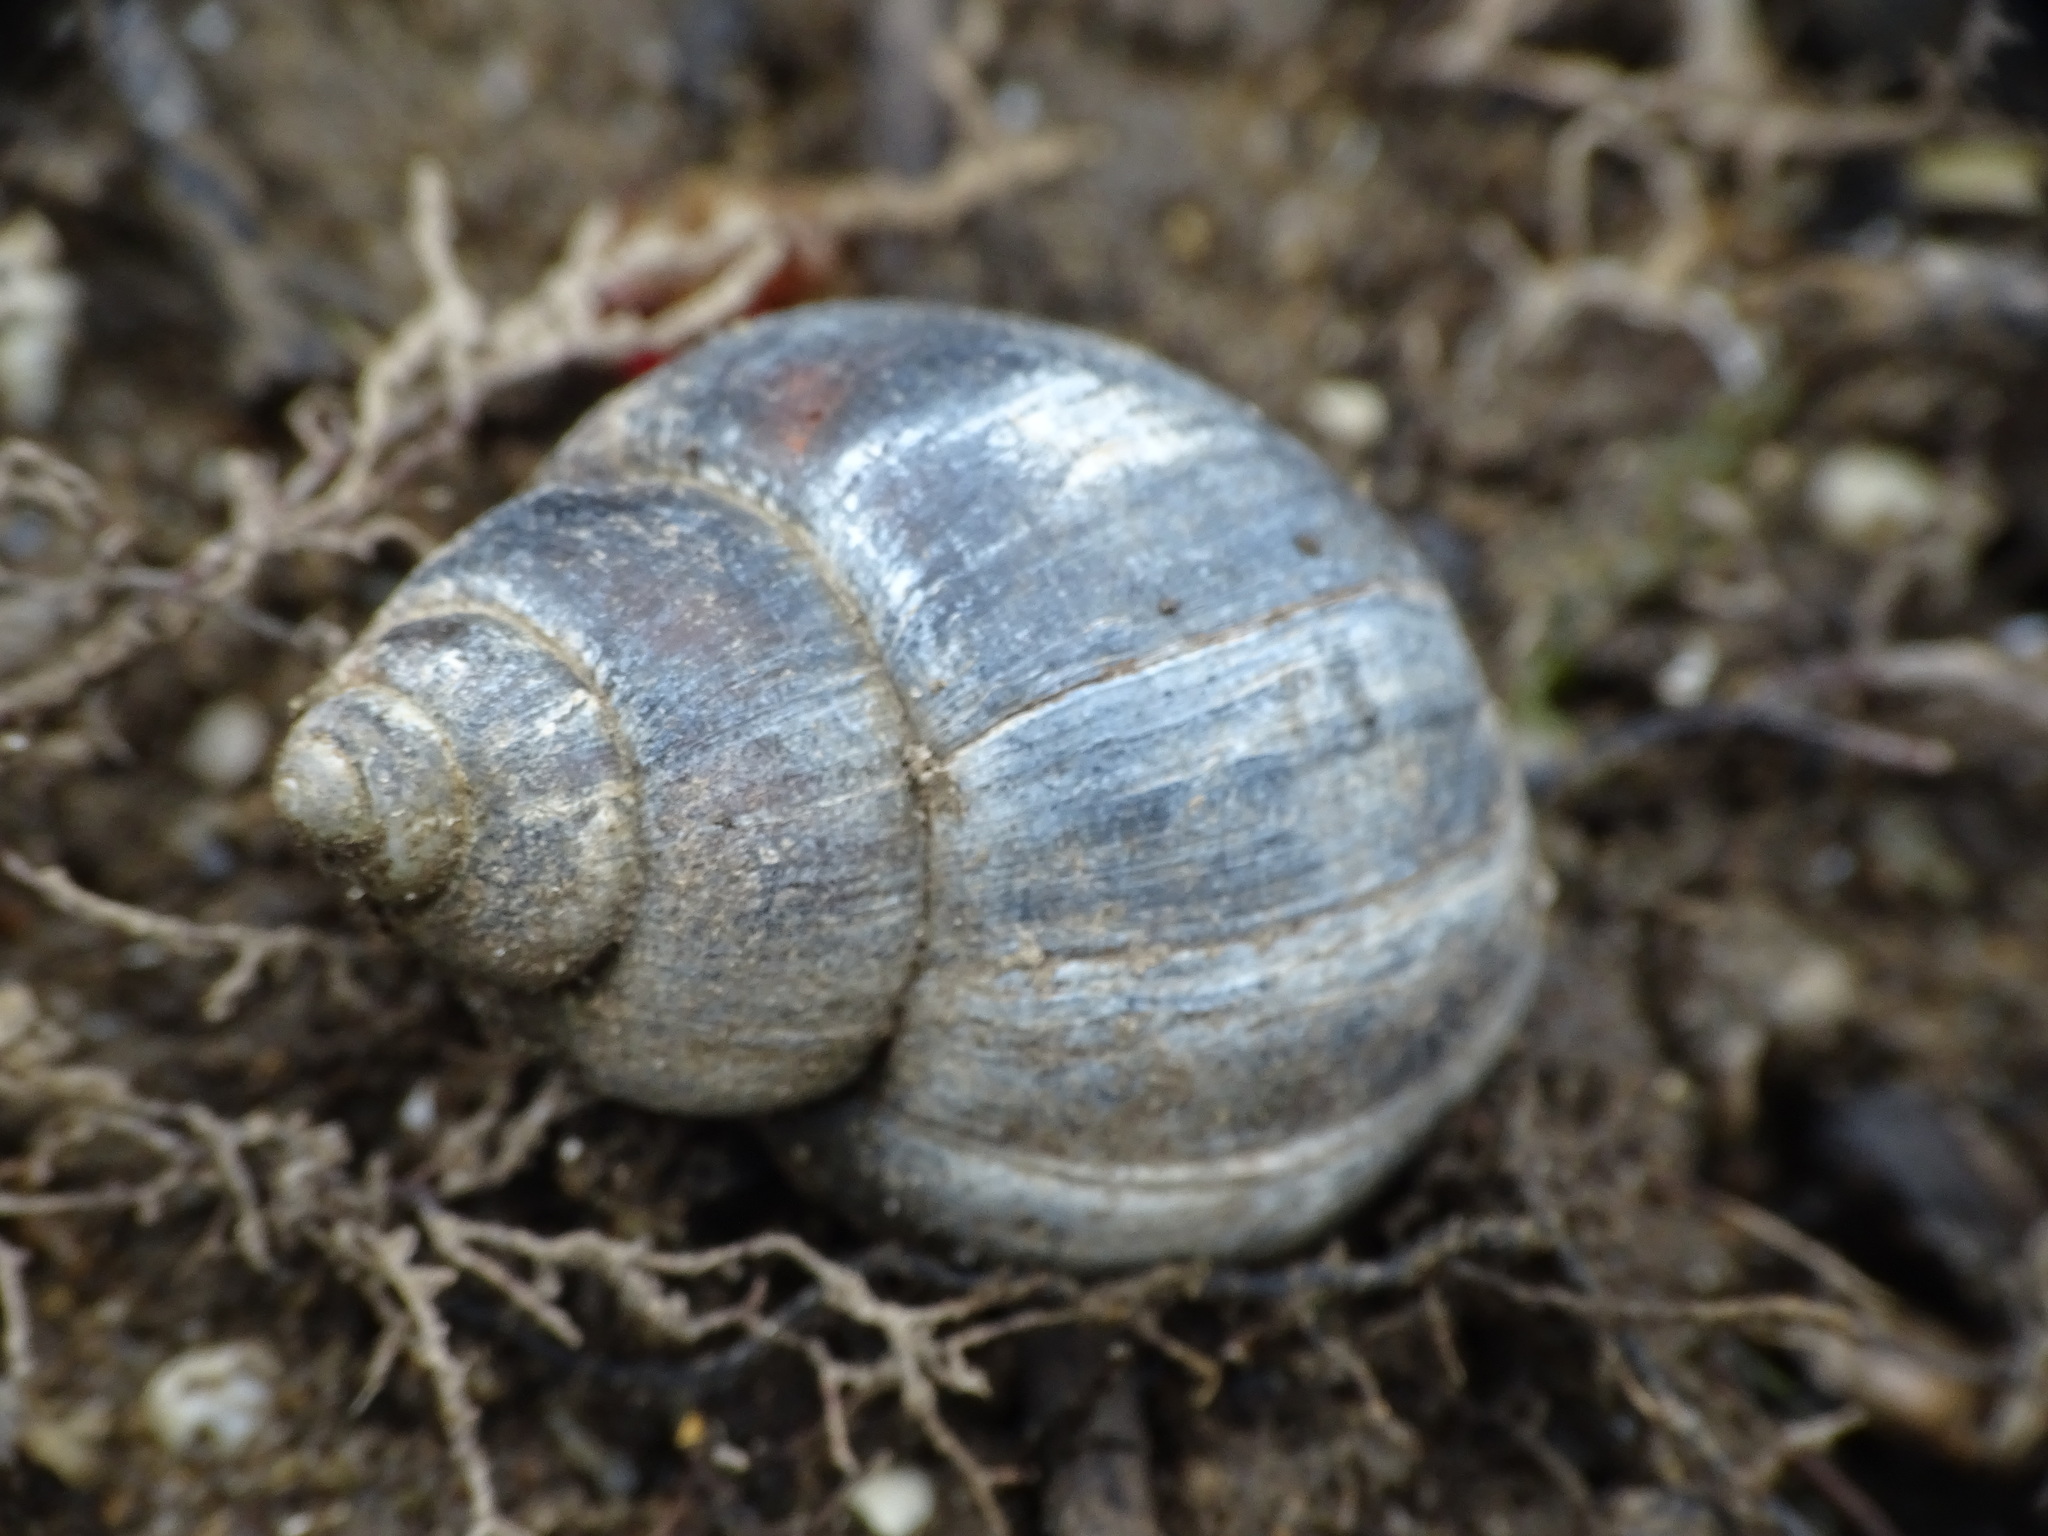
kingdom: Animalia
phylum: Mollusca
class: Gastropoda
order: Architaenioglossa
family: Viviparidae
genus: Cipangopaludina
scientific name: Cipangopaludina chinensis
